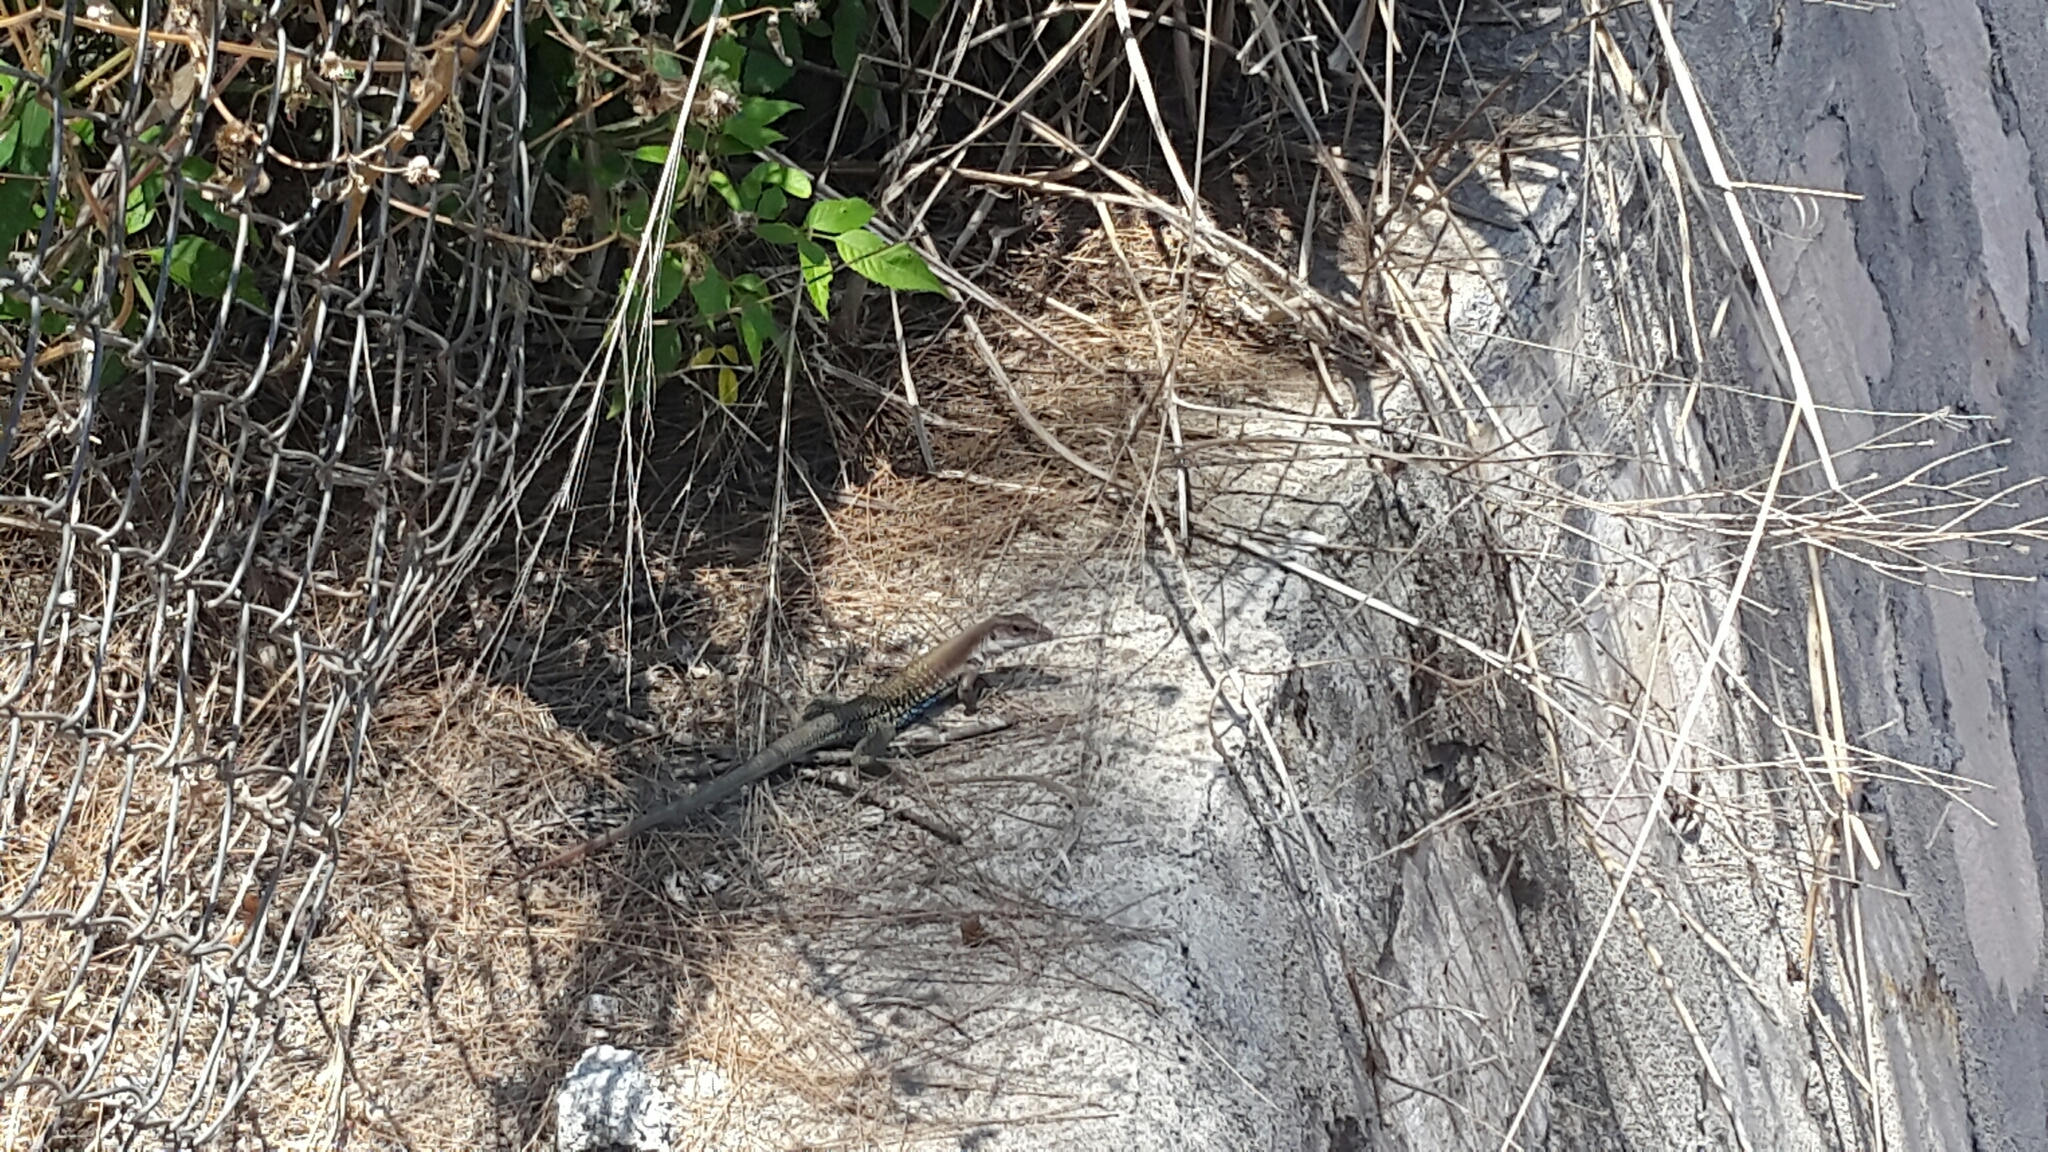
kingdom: Animalia
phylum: Chordata
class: Squamata
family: Teiidae
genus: Aspidoscelis
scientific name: Aspidoscelis motaguae
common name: Giant whiptail
